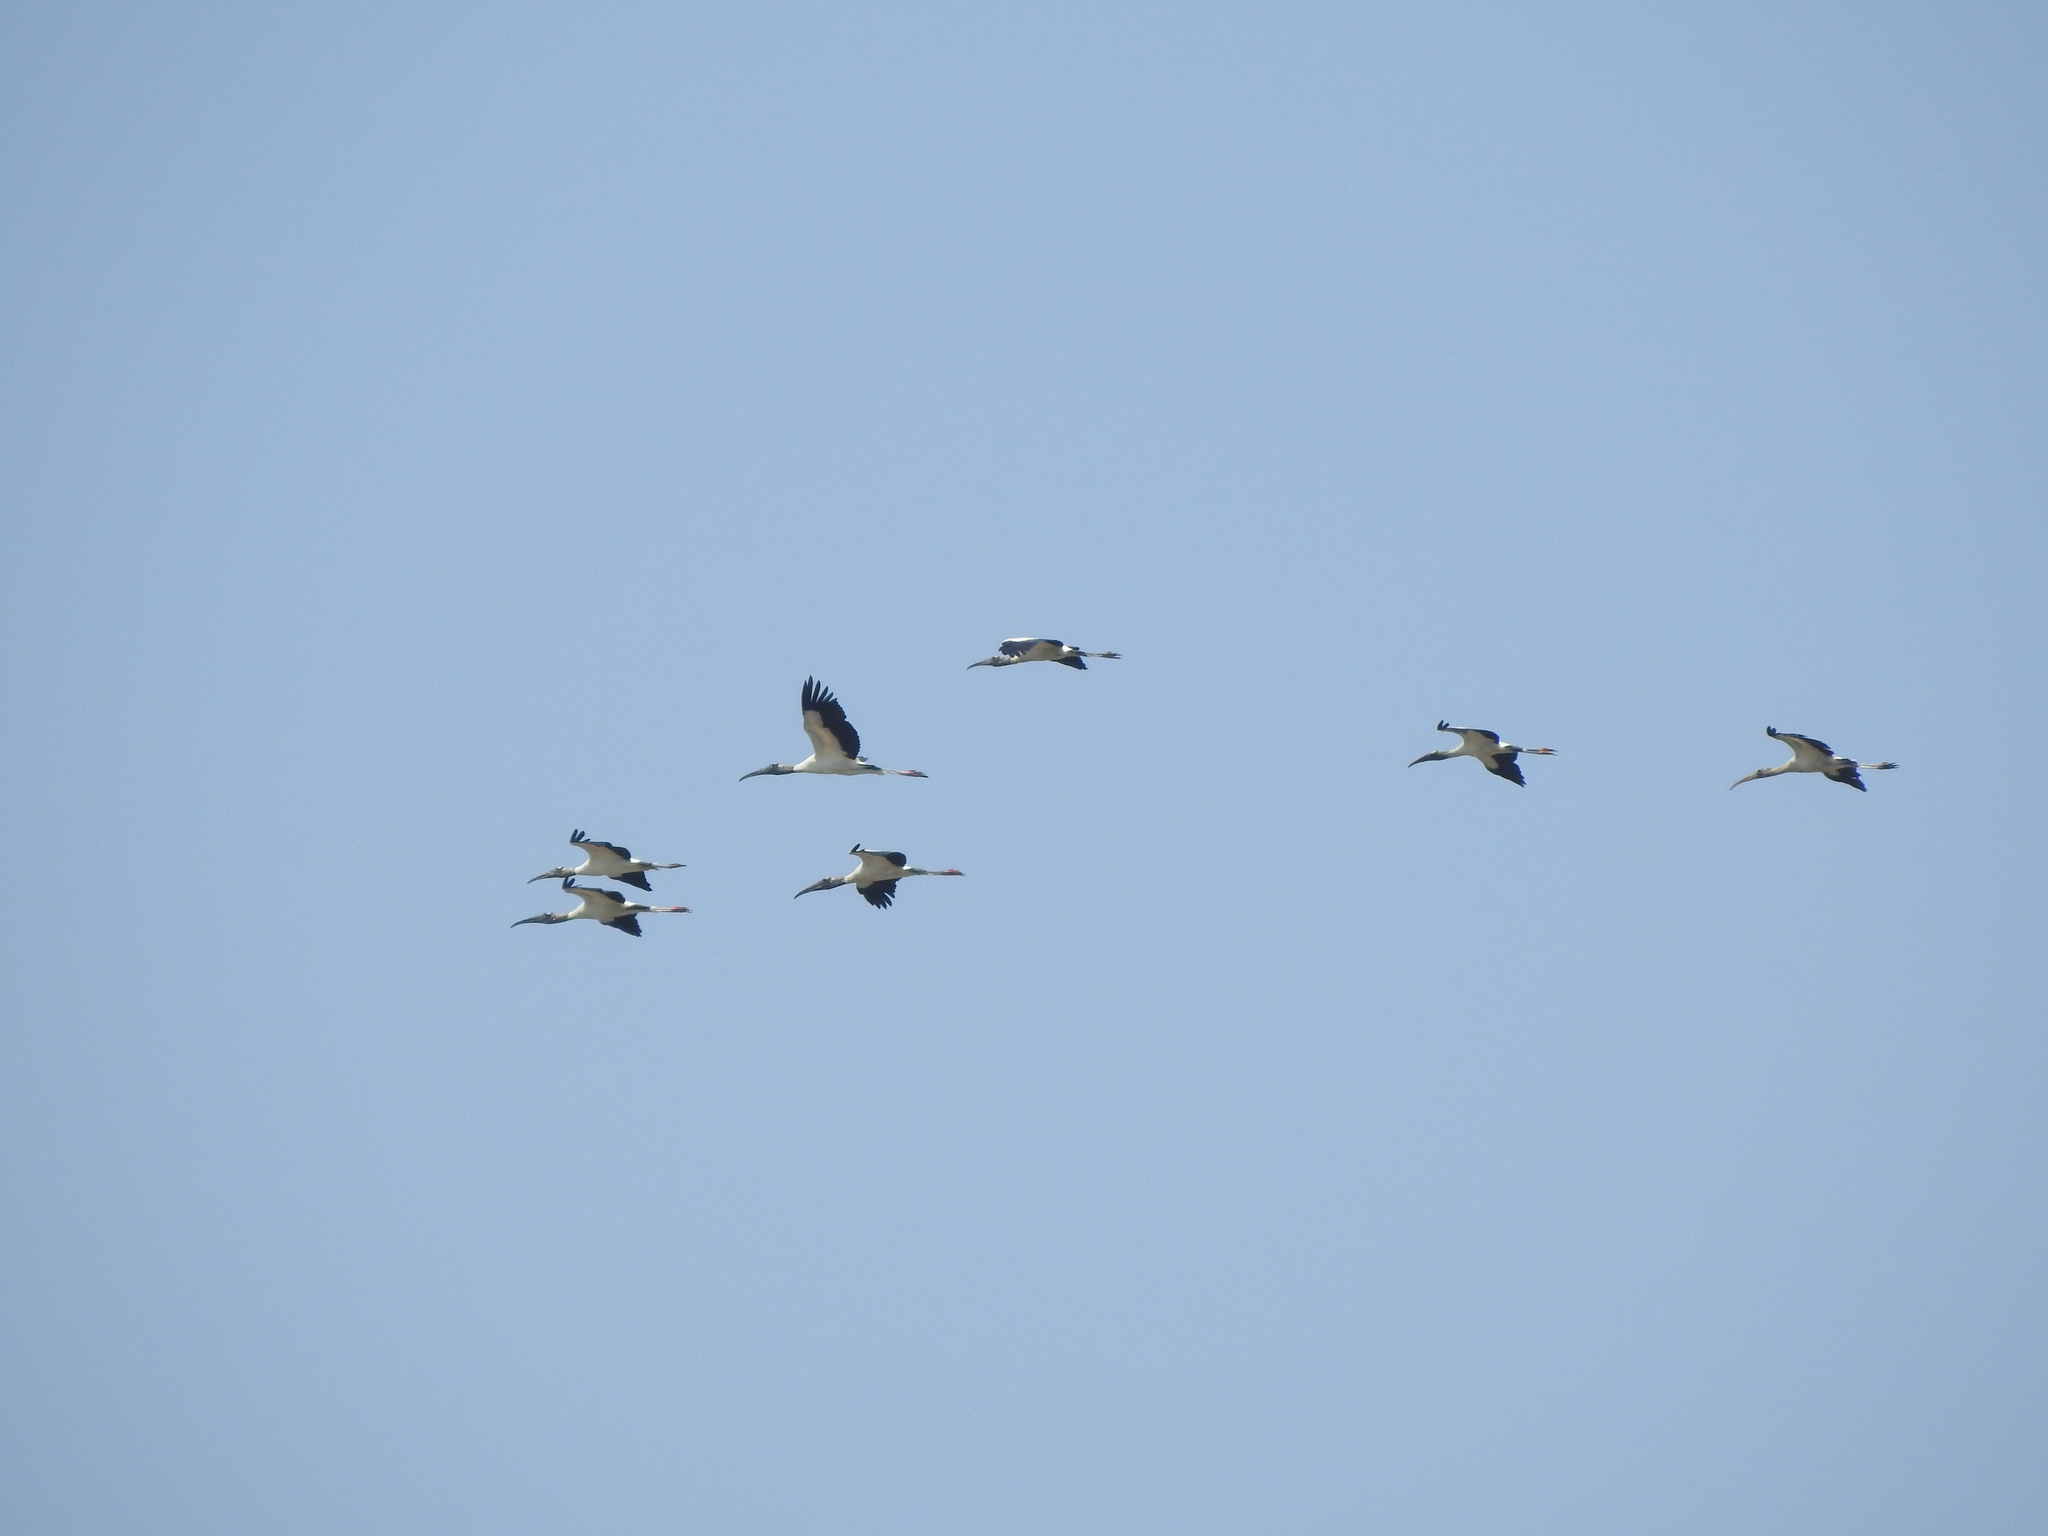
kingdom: Animalia
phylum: Chordata
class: Aves
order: Ciconiiformes
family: Ciconiidae
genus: Mycteria
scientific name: Mycteria americana
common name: Wood stork
